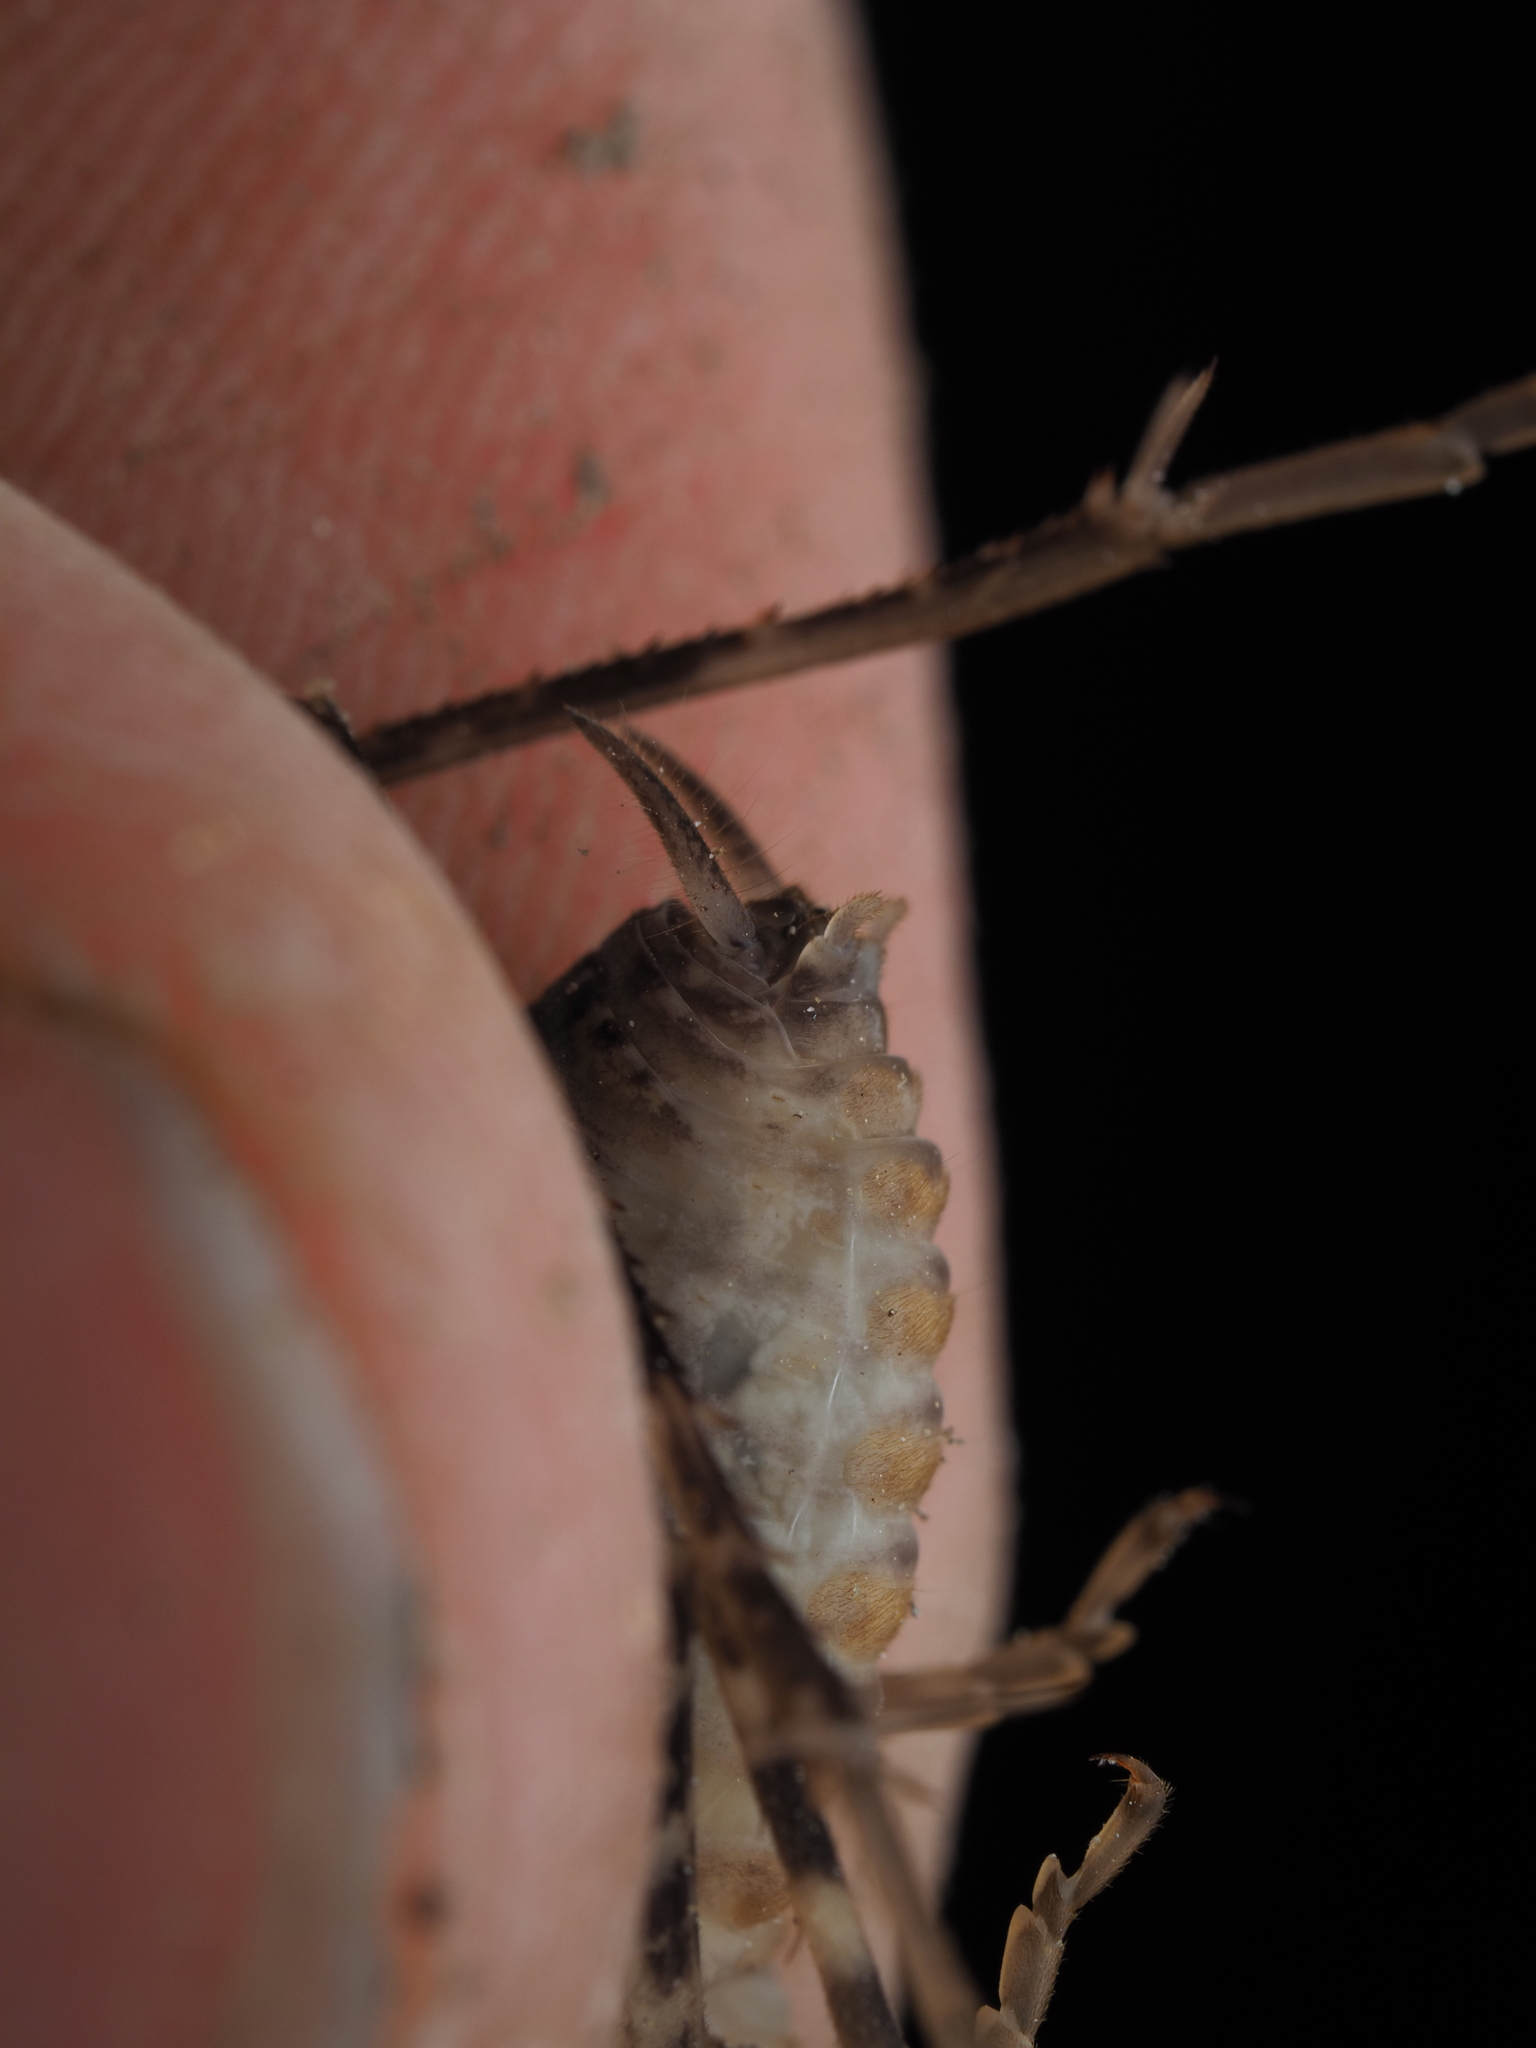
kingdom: Animalia
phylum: Arthropoda
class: Insecta
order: Orthoptera
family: Rhaphidophoridae
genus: Pleioplectron
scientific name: Pleioplectron simplex
